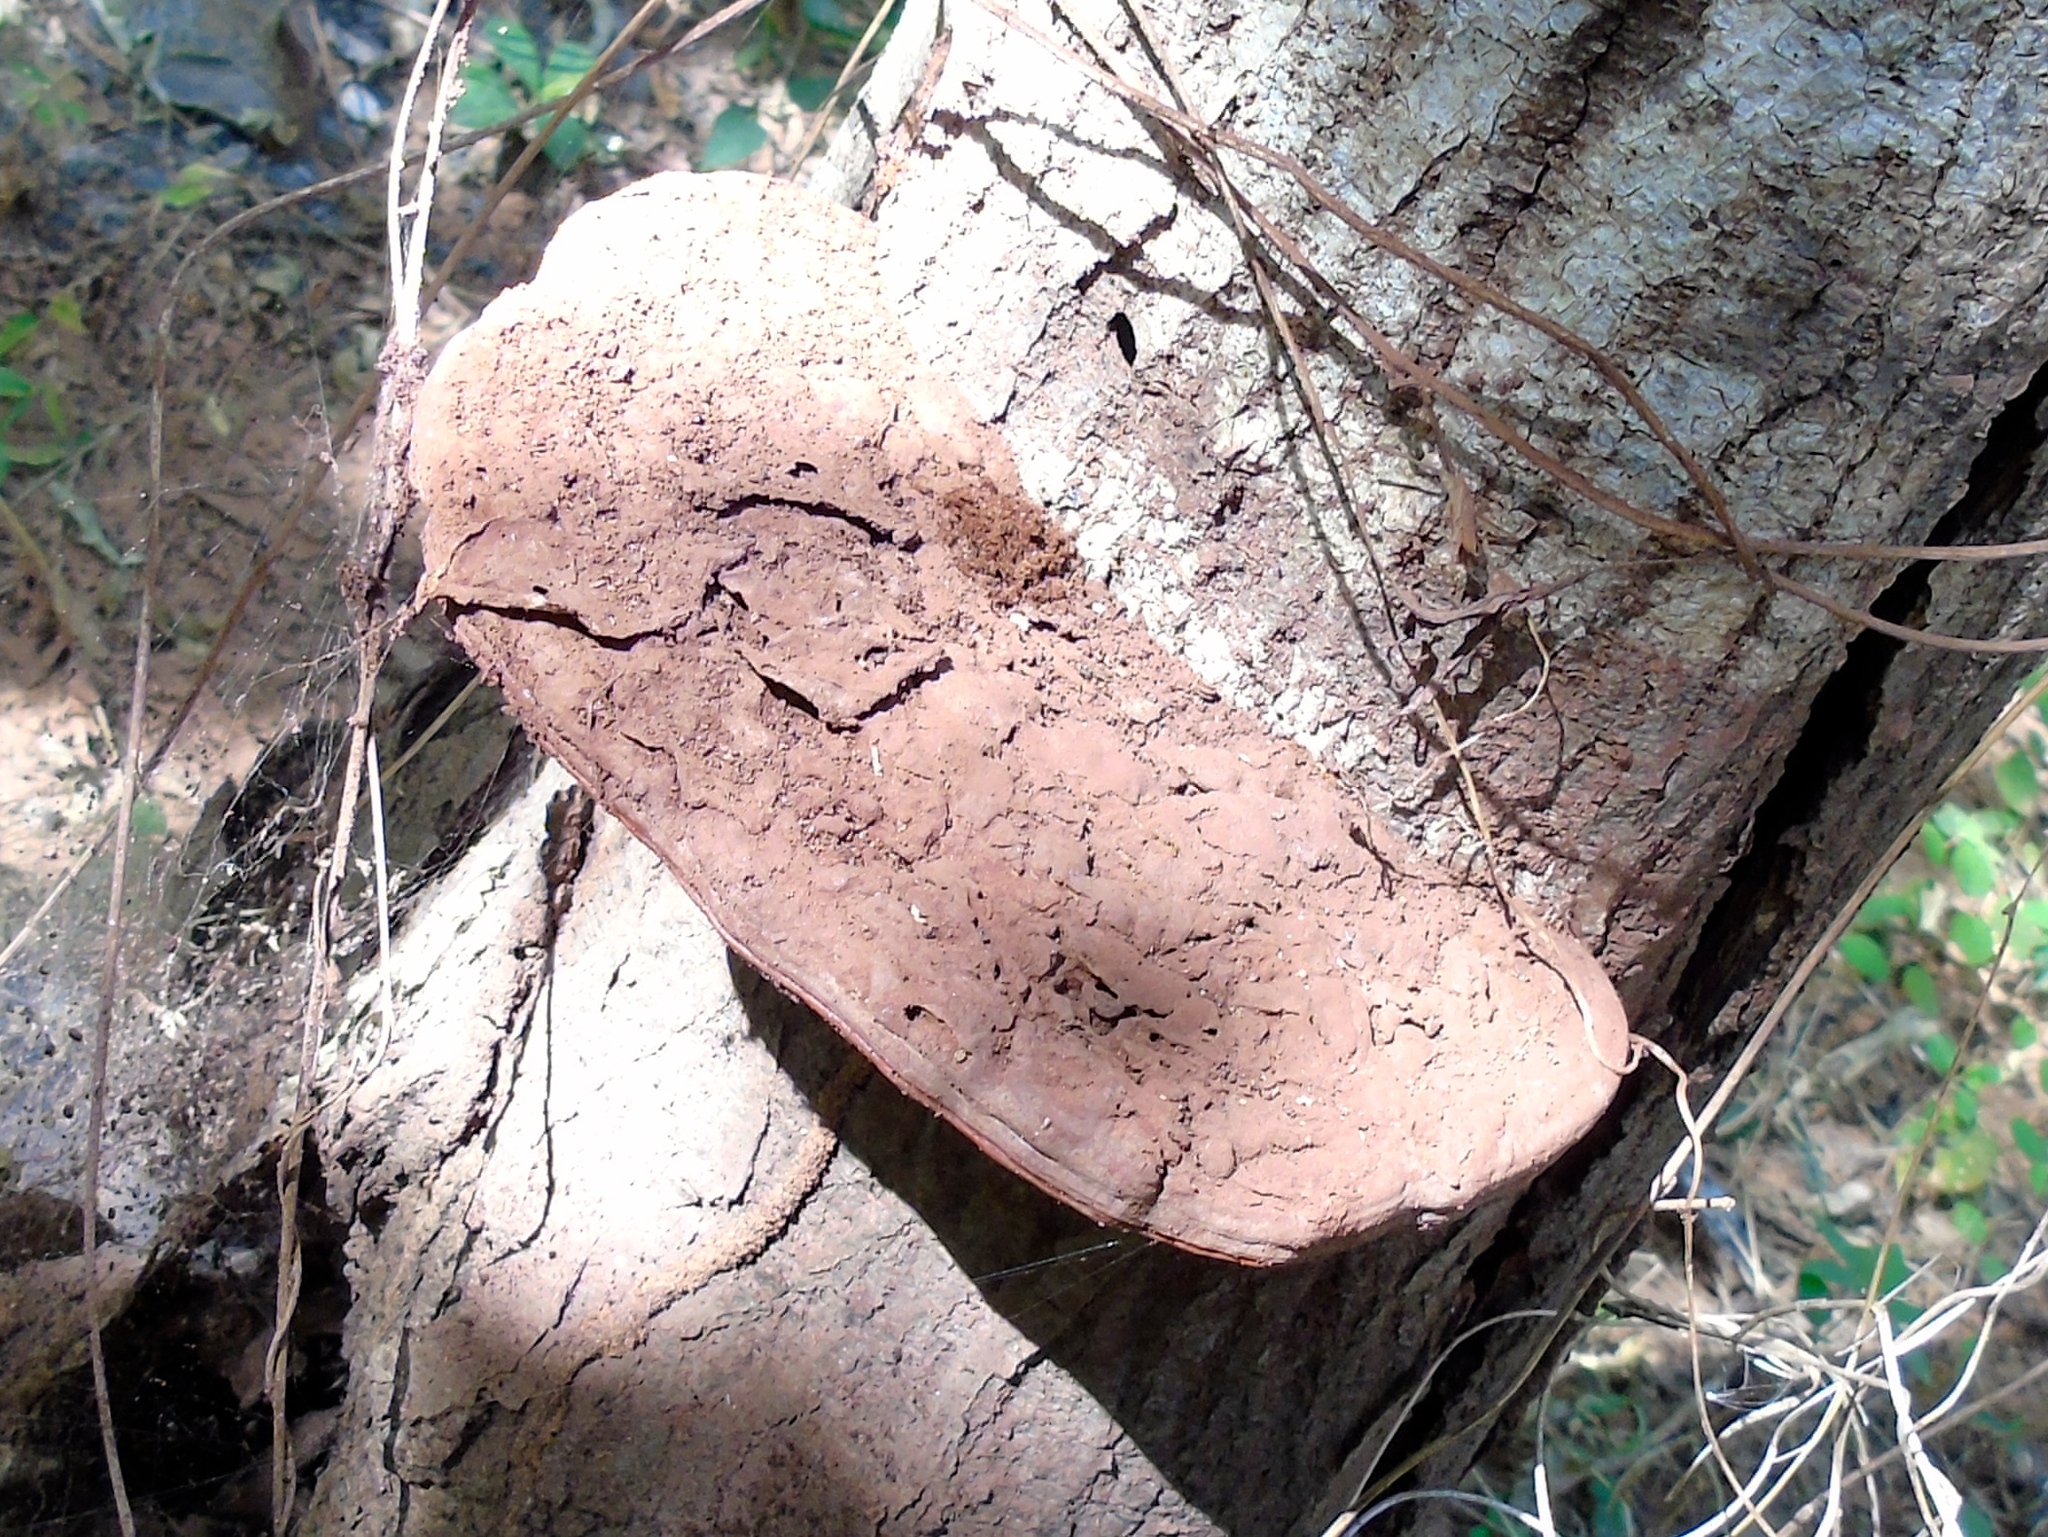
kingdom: Fungi
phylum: Basidiomycota
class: Agaricomycetes
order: Polyporales
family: Polyporaceae
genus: Ganoderma
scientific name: Ganoderma
